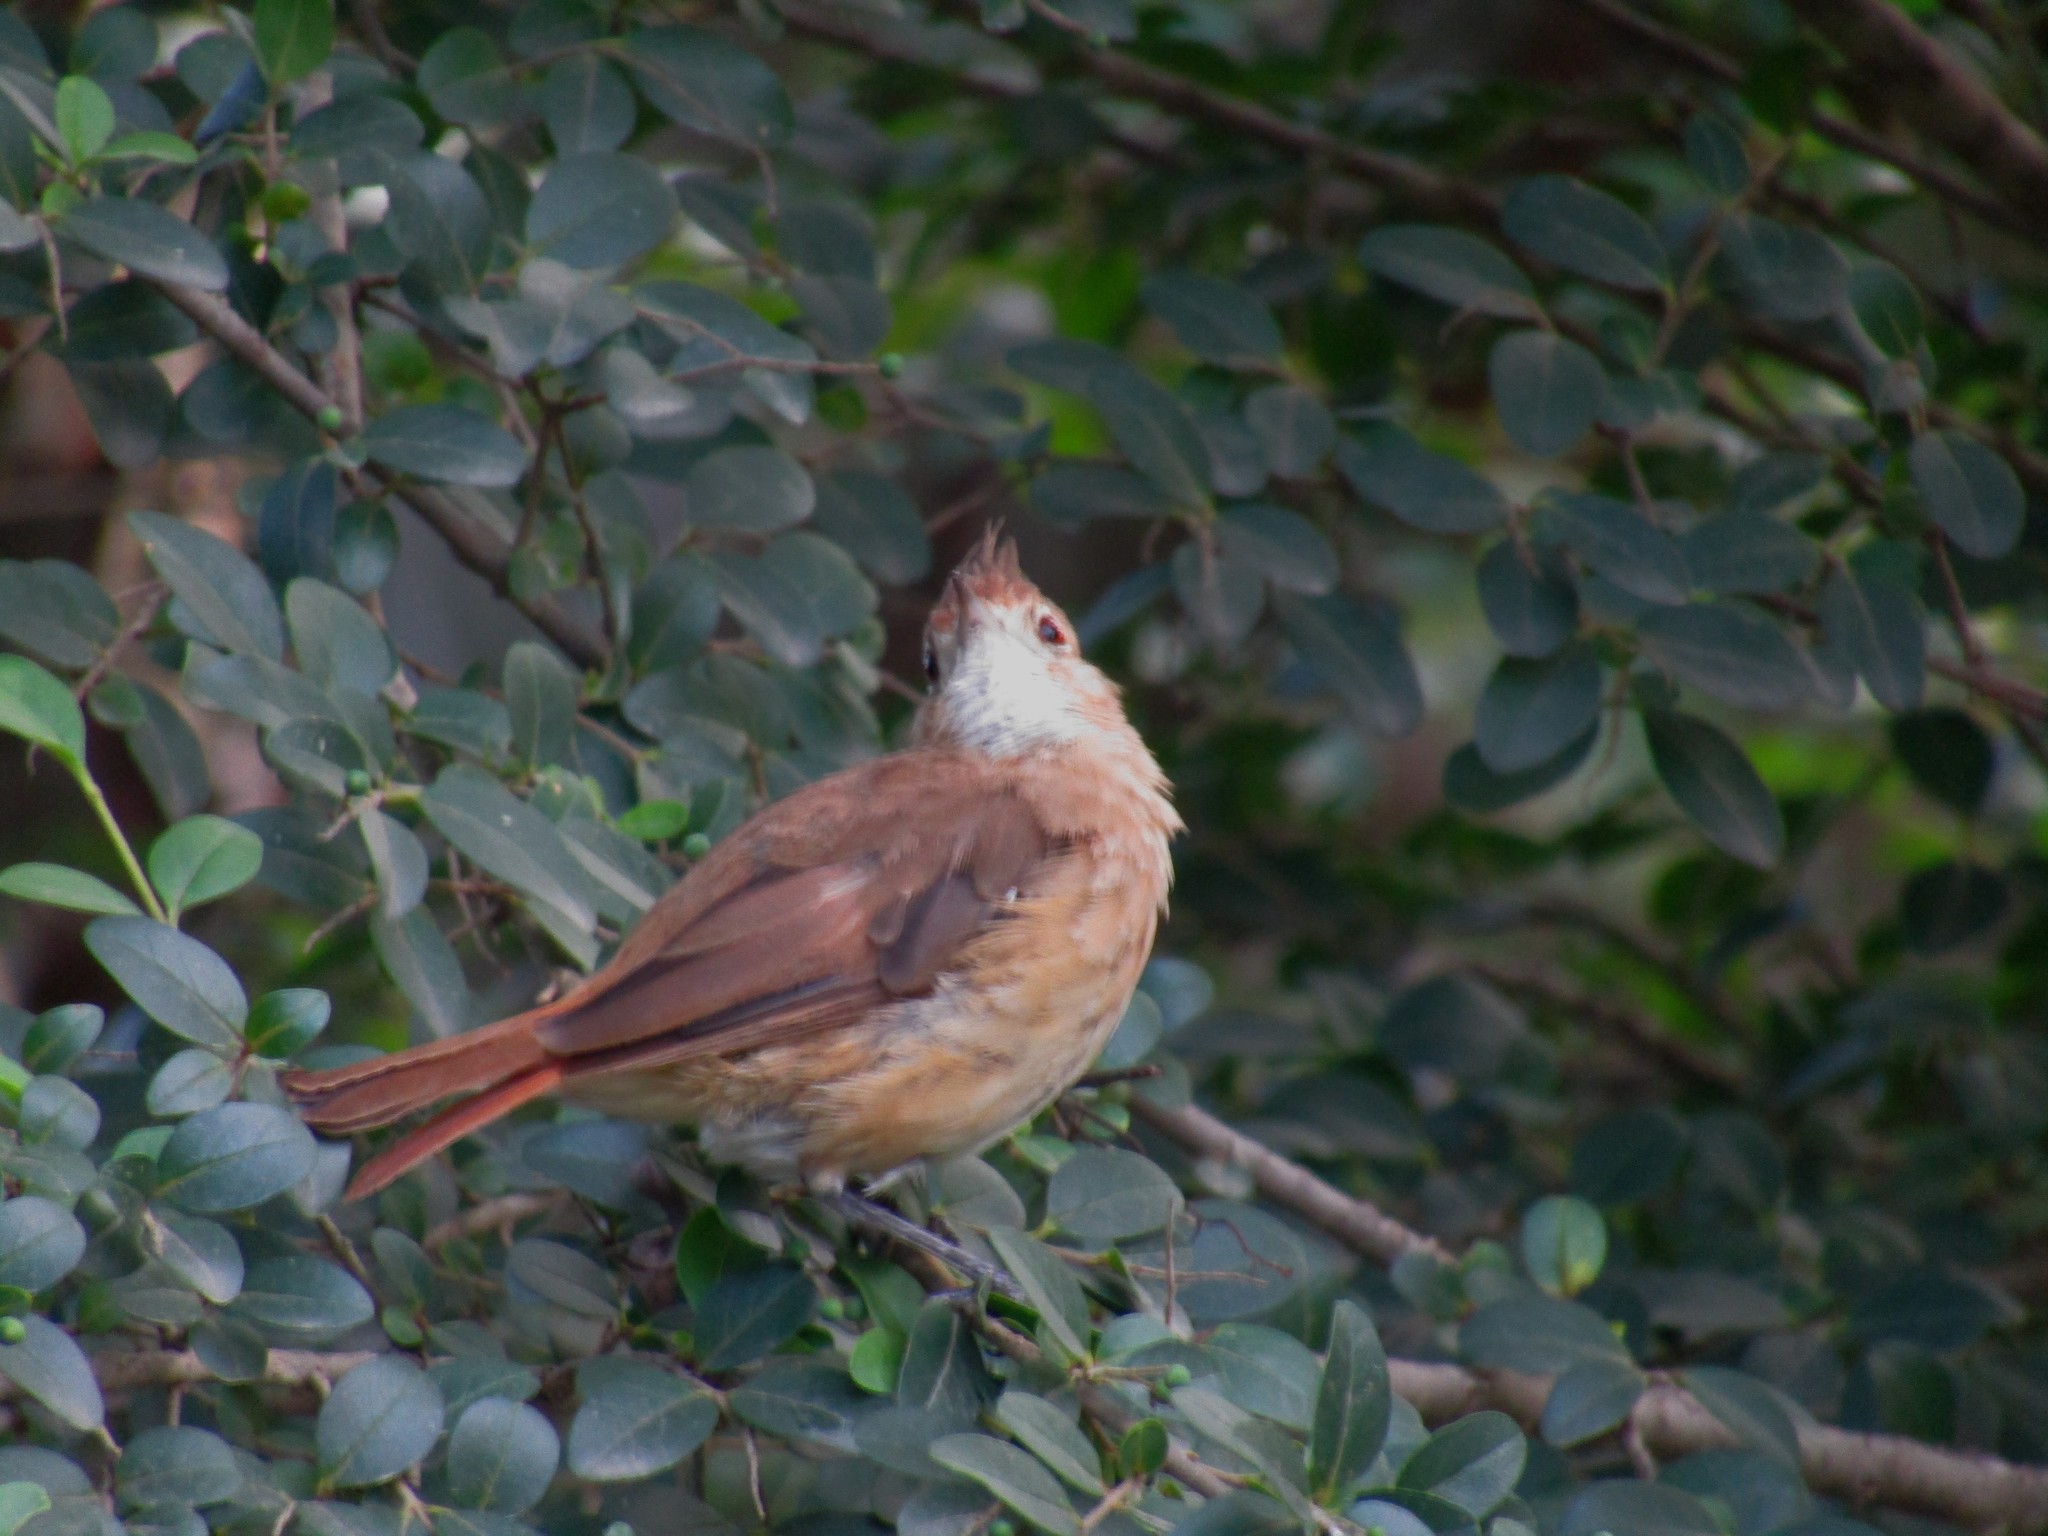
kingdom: Animalia
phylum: Chordata
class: Aves
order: Passeriformes
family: Furnariidae
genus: Furnarius
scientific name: Furnarius cristatus
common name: Crested hornero
